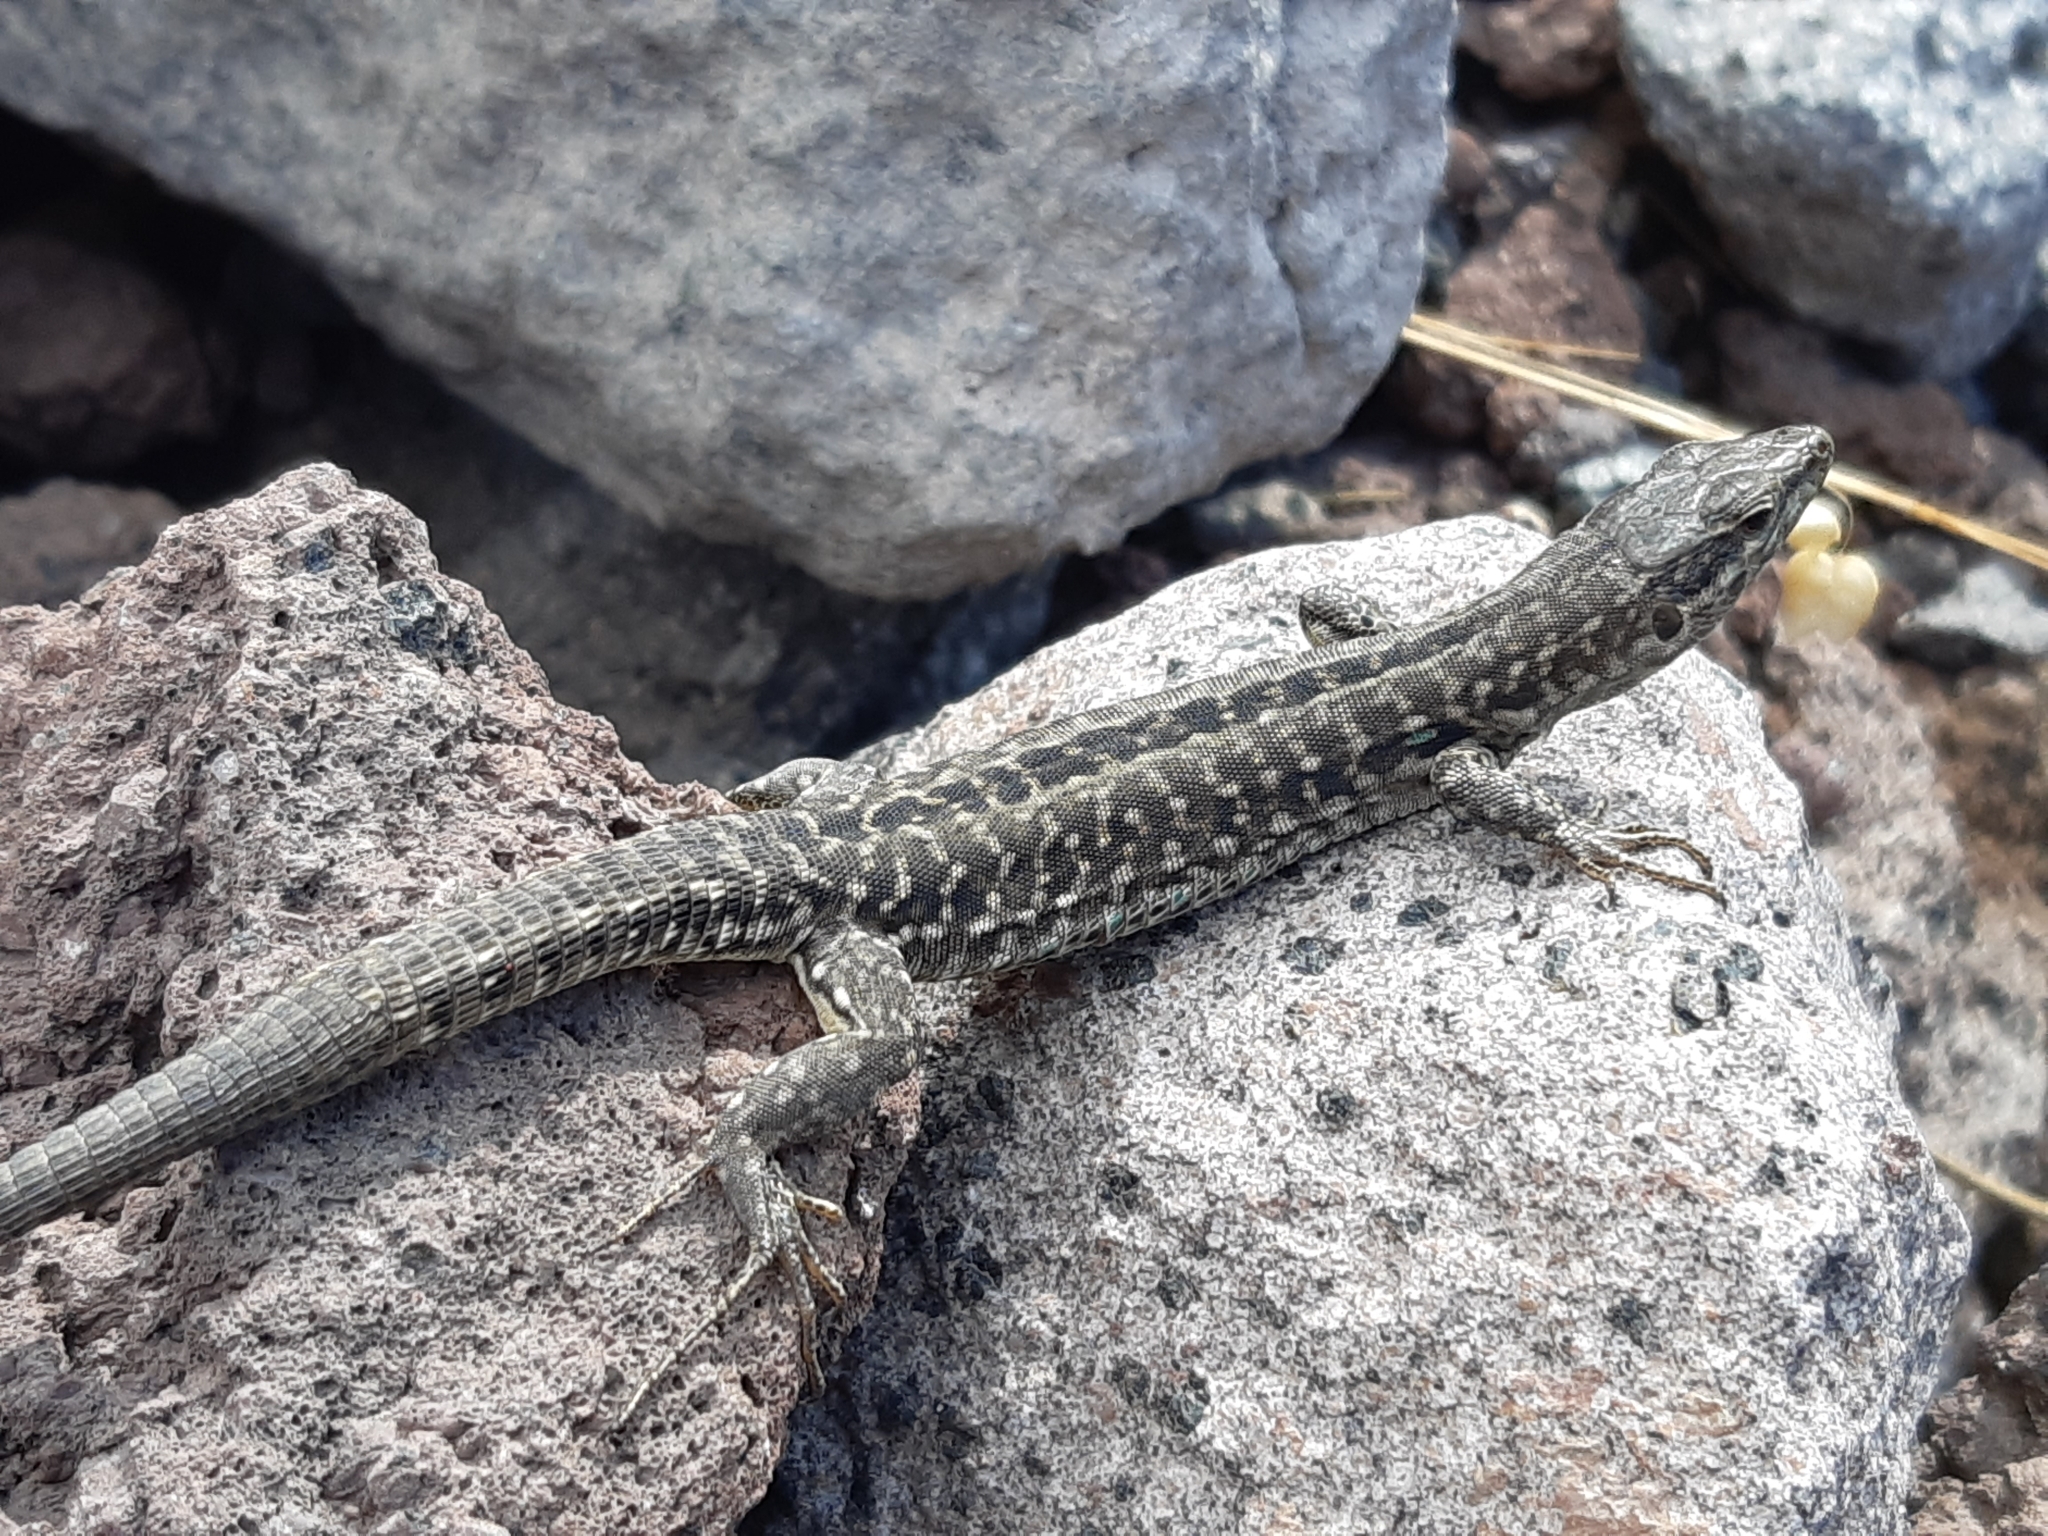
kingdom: Animalia
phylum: Chordata
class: Squamata
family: Lacertidae
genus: Podarcis
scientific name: Podarcis siculus
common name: Italian wall lizard
